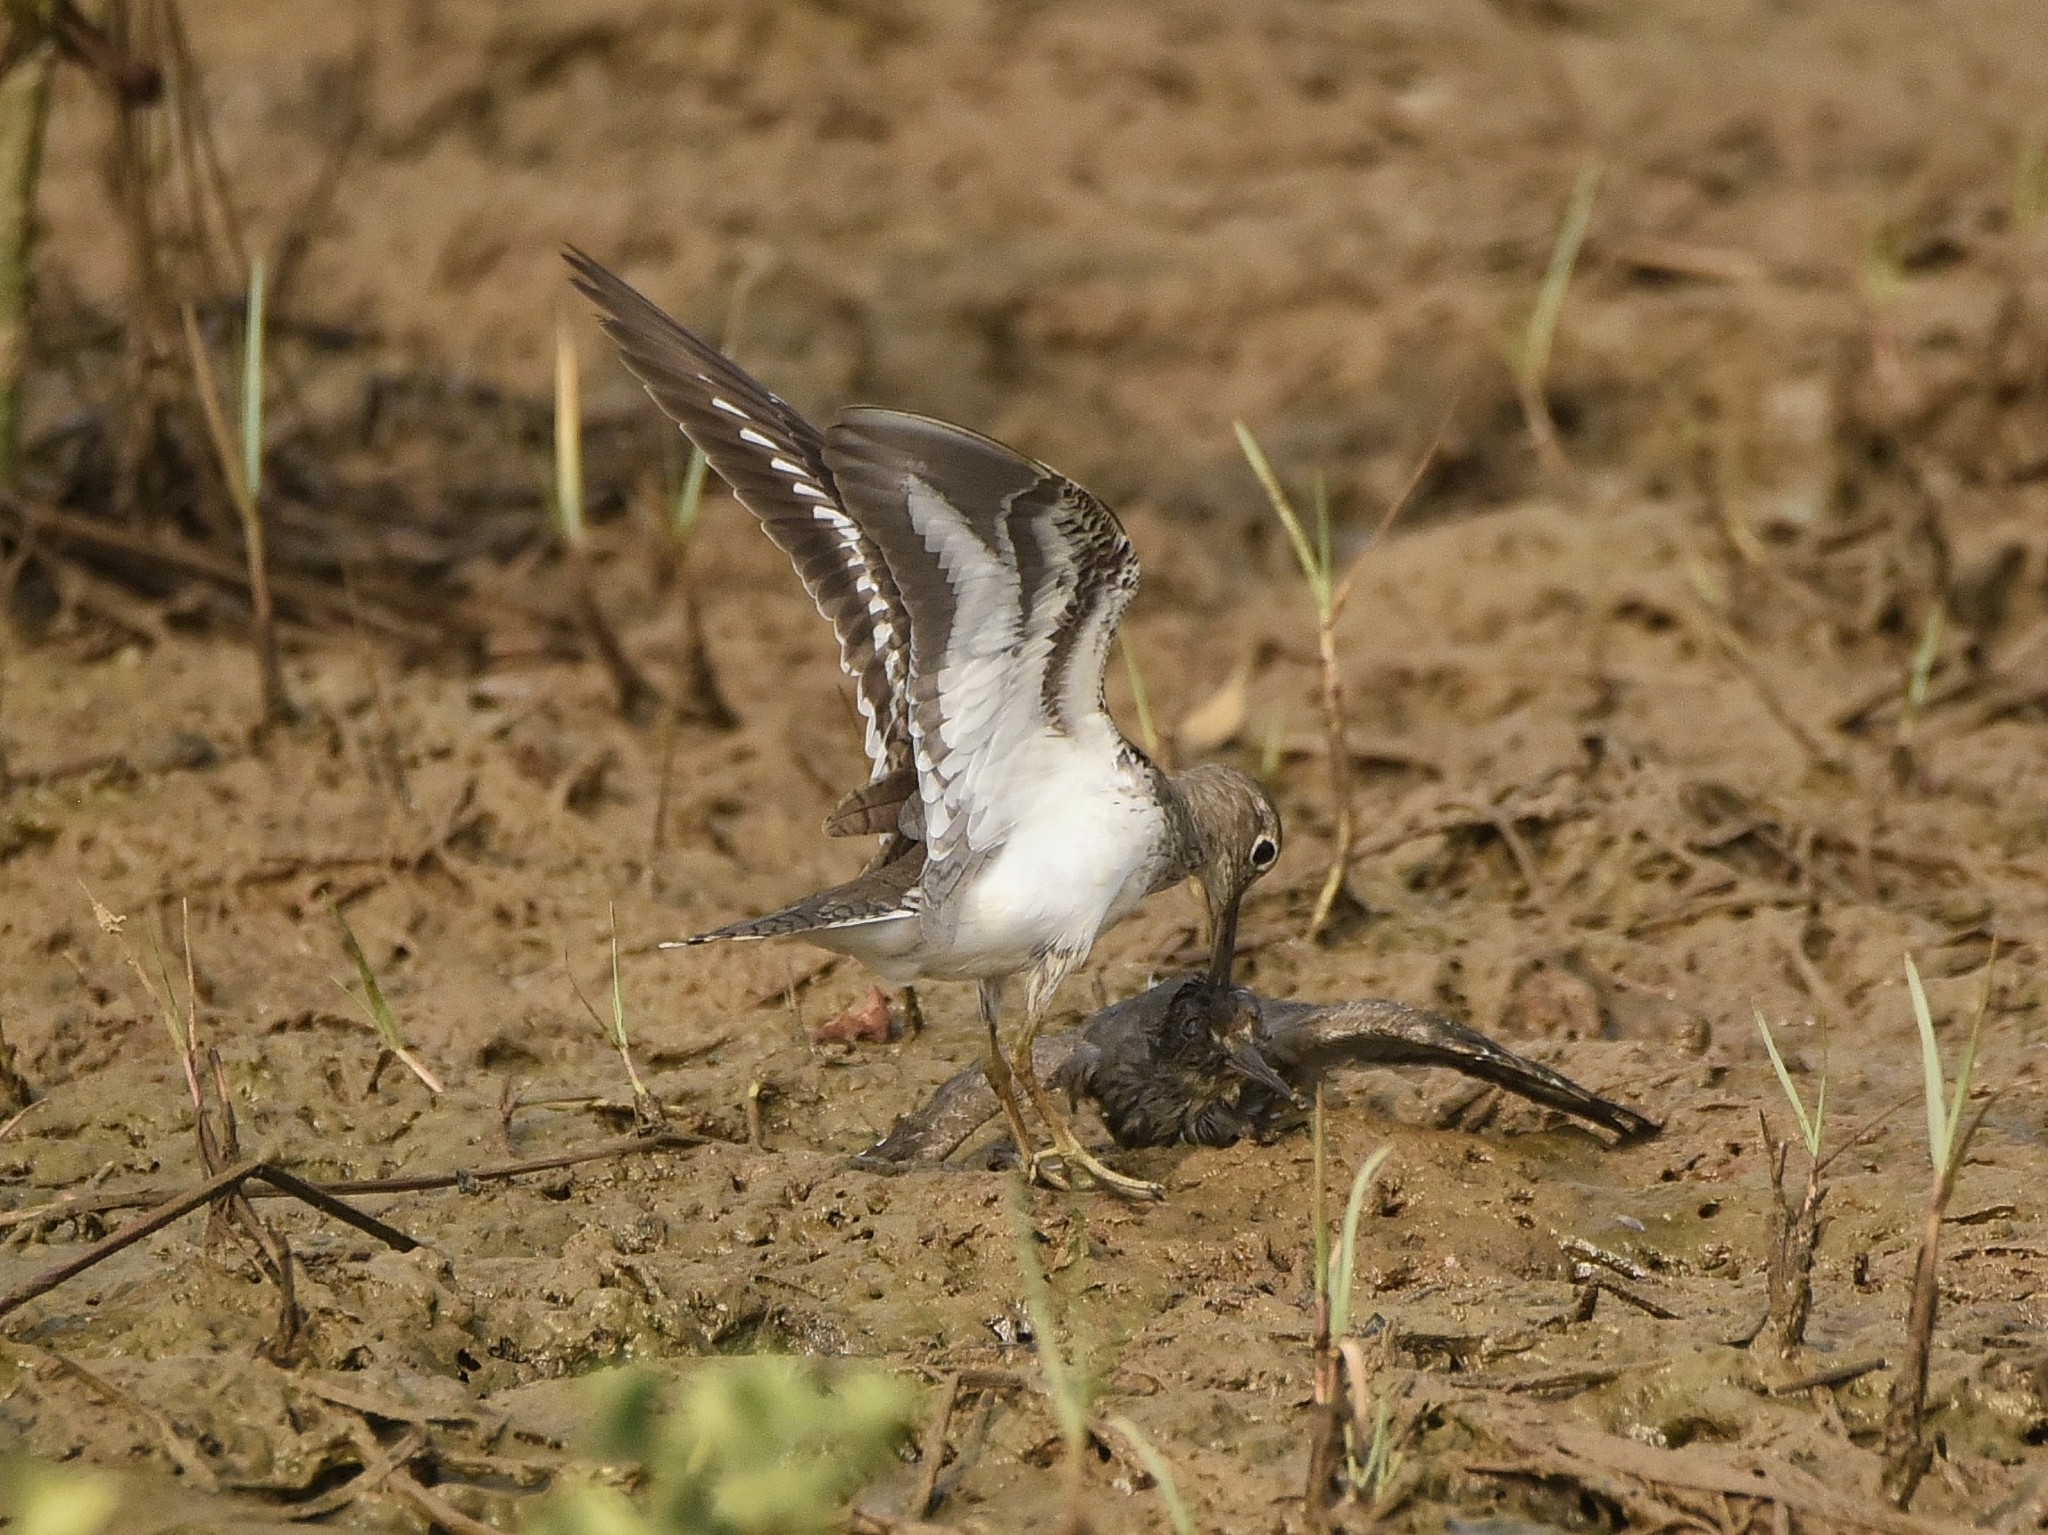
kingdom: Animalia
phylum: Chordata
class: Aves
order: Charadriiformes
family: Scolopacidae
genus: Actitis
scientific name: Actitis hypoleucos
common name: Common sandpiper
